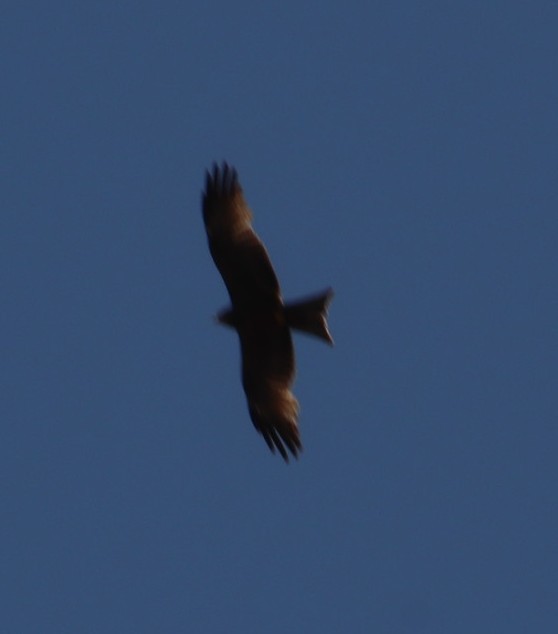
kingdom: Animalia
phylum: Chordata
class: Aves
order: Accipitriformes
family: Accipitridae
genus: Milvus
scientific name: Milvus migrans
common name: Black kite
